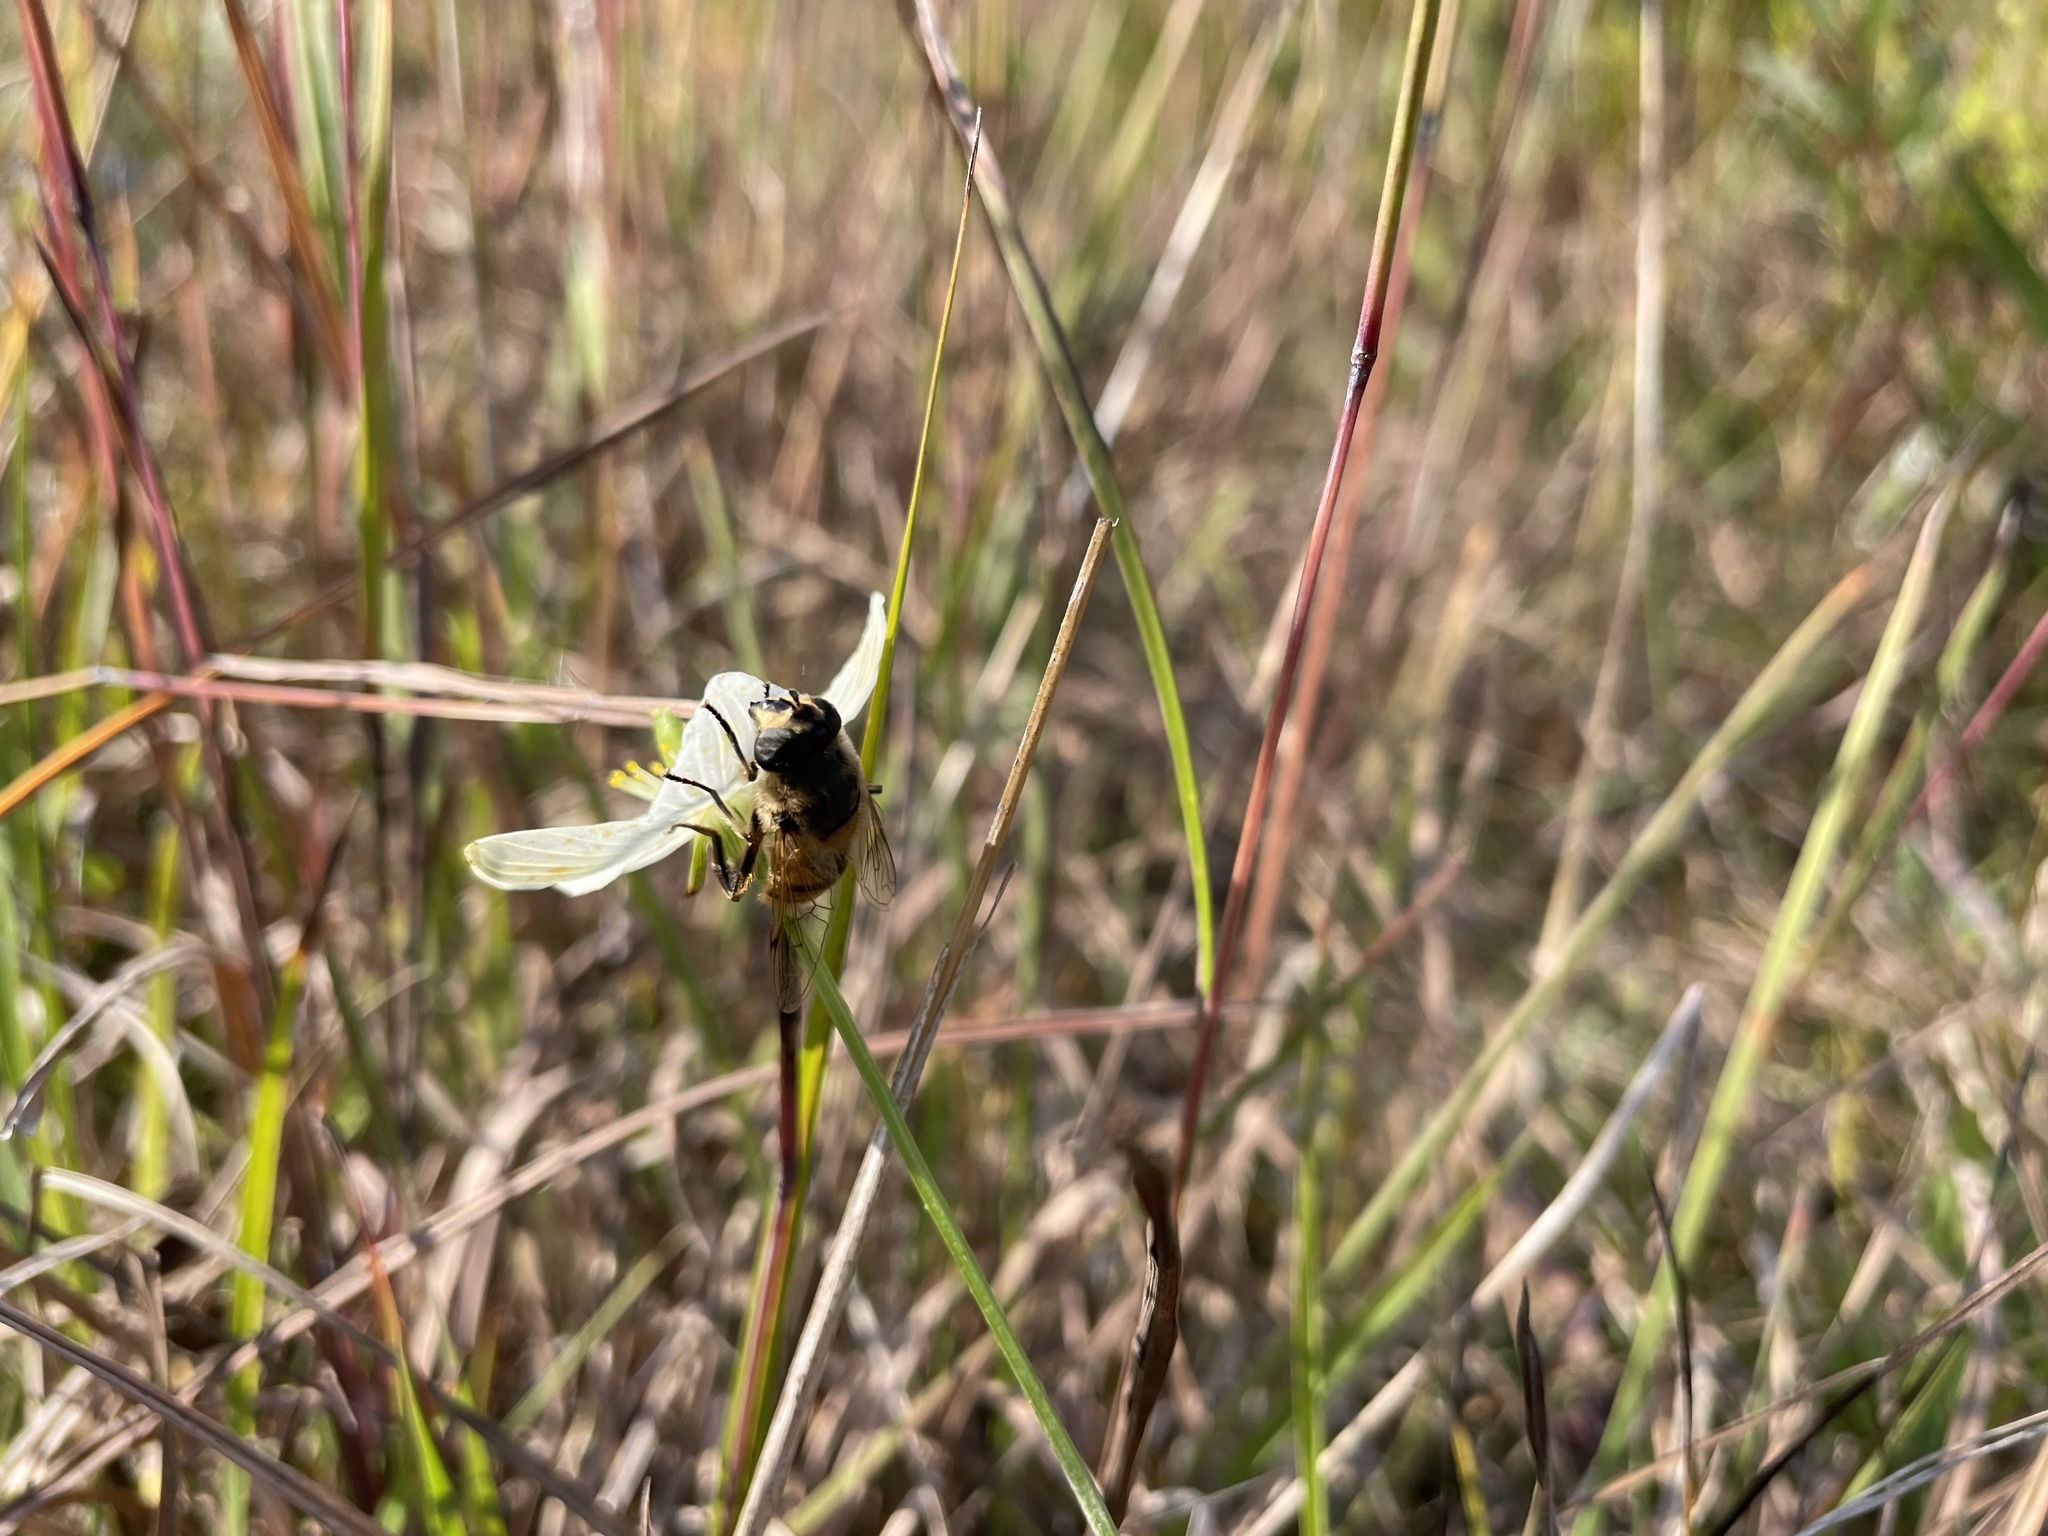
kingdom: Animalia
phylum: Arthropoda
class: Insecta
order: Diptera
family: Syrphidae
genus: Eristalis
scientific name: Eristalis tenax
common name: Drone fly
